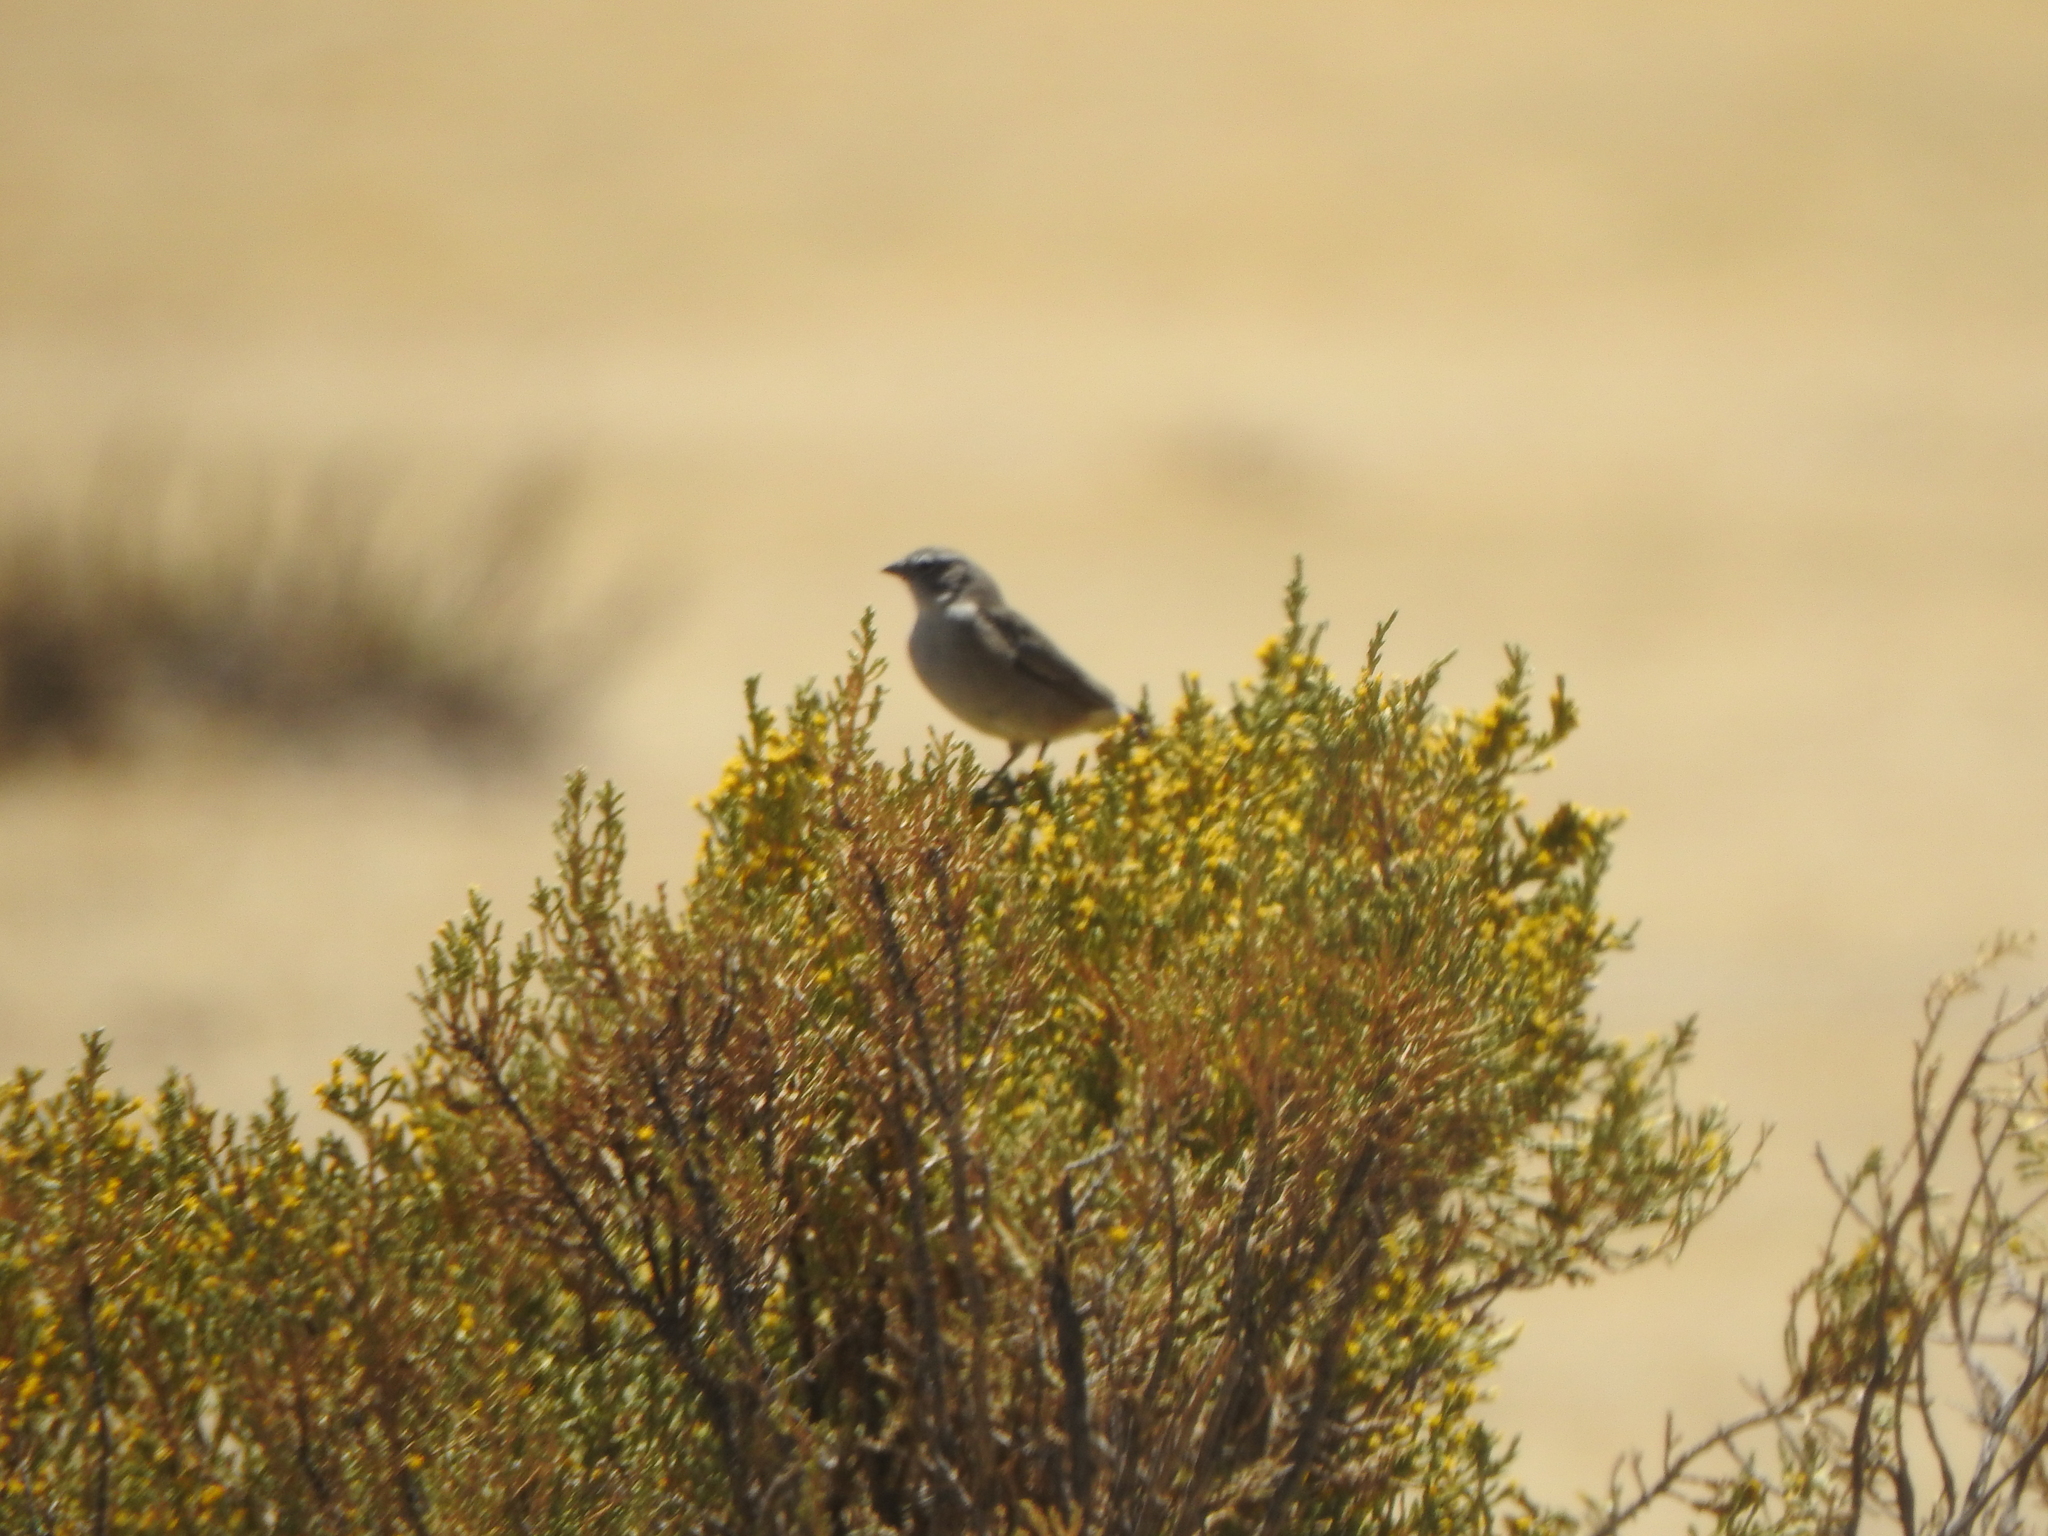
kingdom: Animalia
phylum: Chordata
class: Aves
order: Passeriformes
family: Thraupidae
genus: Geospizopsis
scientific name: Geospizopsis unicolor
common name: Plumbeous sierra-finch
